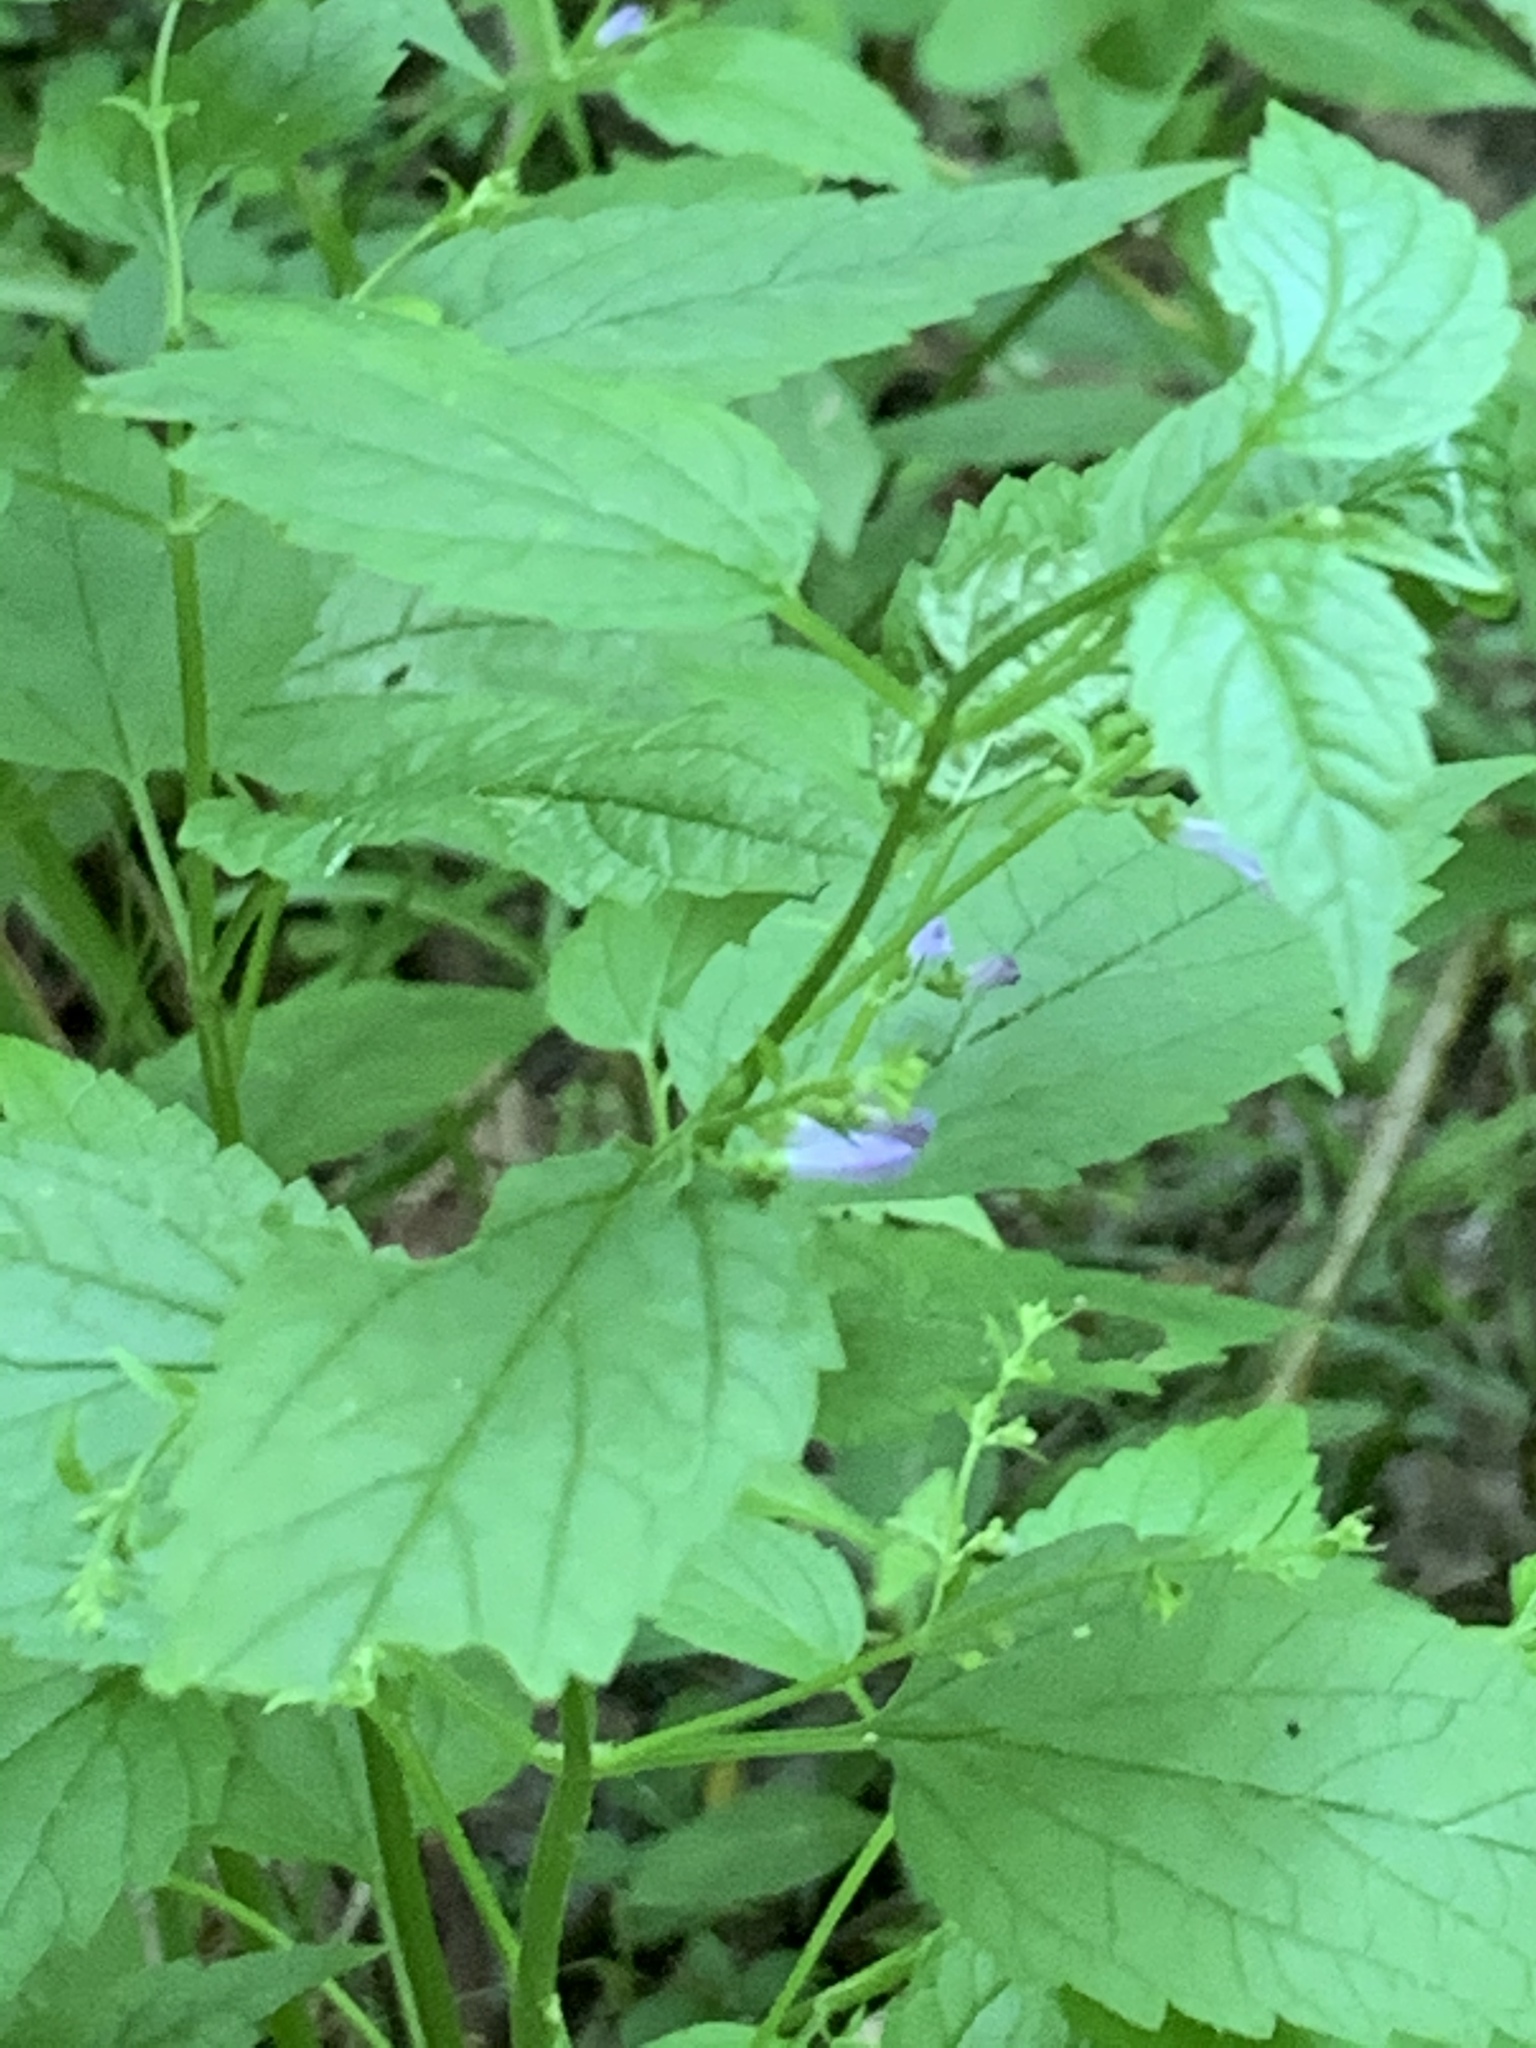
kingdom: Plantae
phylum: Tracheophyta
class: Magnoliopsida
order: Lamiales
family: Lamiaceae
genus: Scutellaria
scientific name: Scutellaria lateriflora
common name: Blue skullcap
